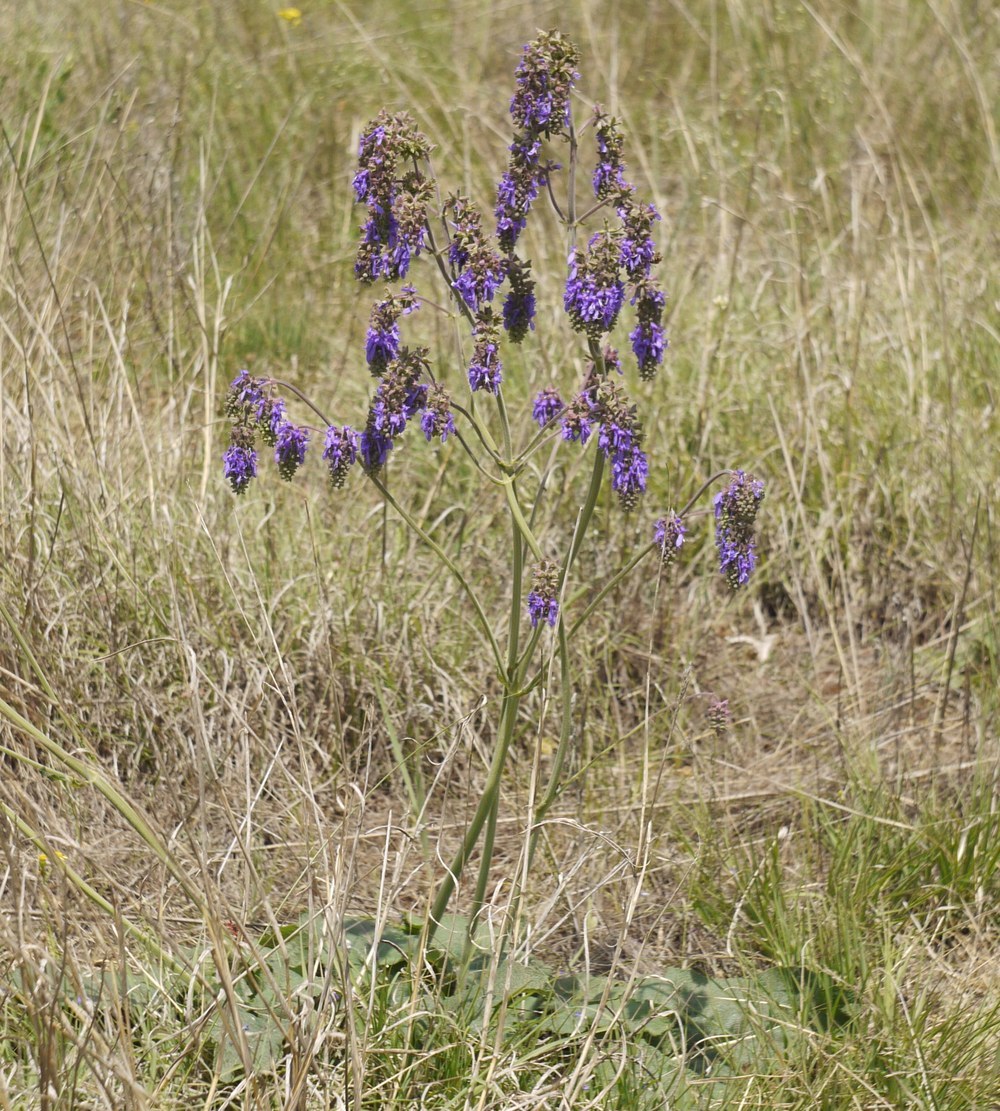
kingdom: Plantae
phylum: Tracheophyta
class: Magnoliopsida
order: Lamiales
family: Lamiaceae
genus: Salvia
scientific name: Salvia nutans
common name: Nodding sage
